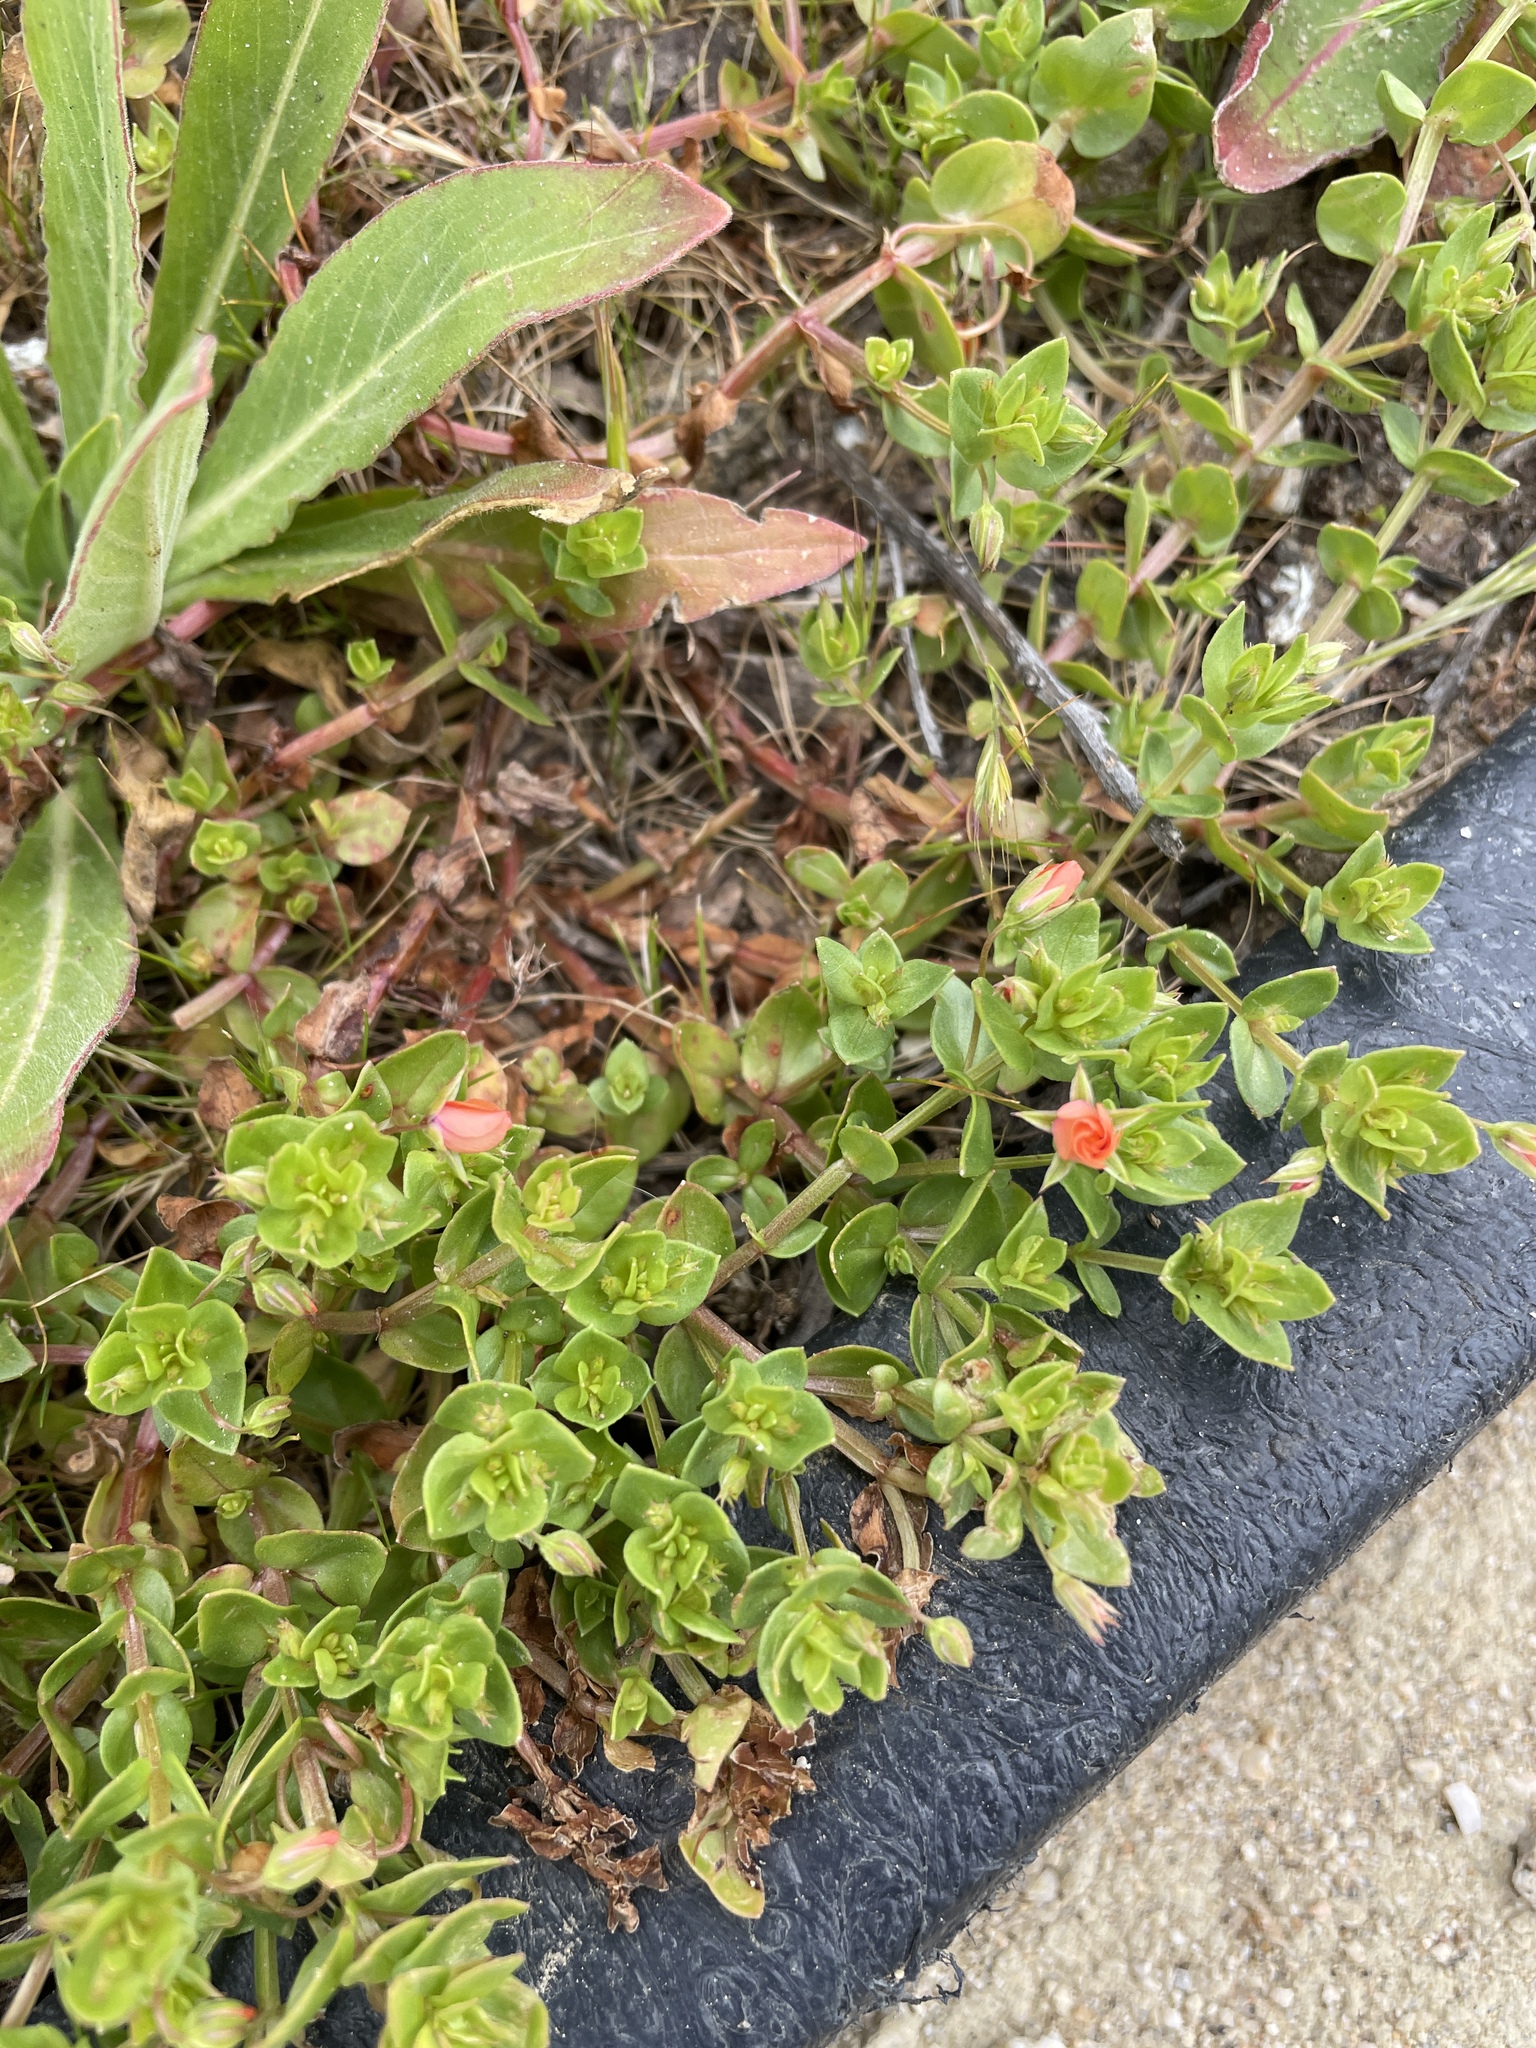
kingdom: Plantae
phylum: Tracheophyta
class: Magnoliopsida
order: Ericales
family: Primulaceae
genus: Lysimachia
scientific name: Lysimachia arvensis
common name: Scarlet pimpernel
